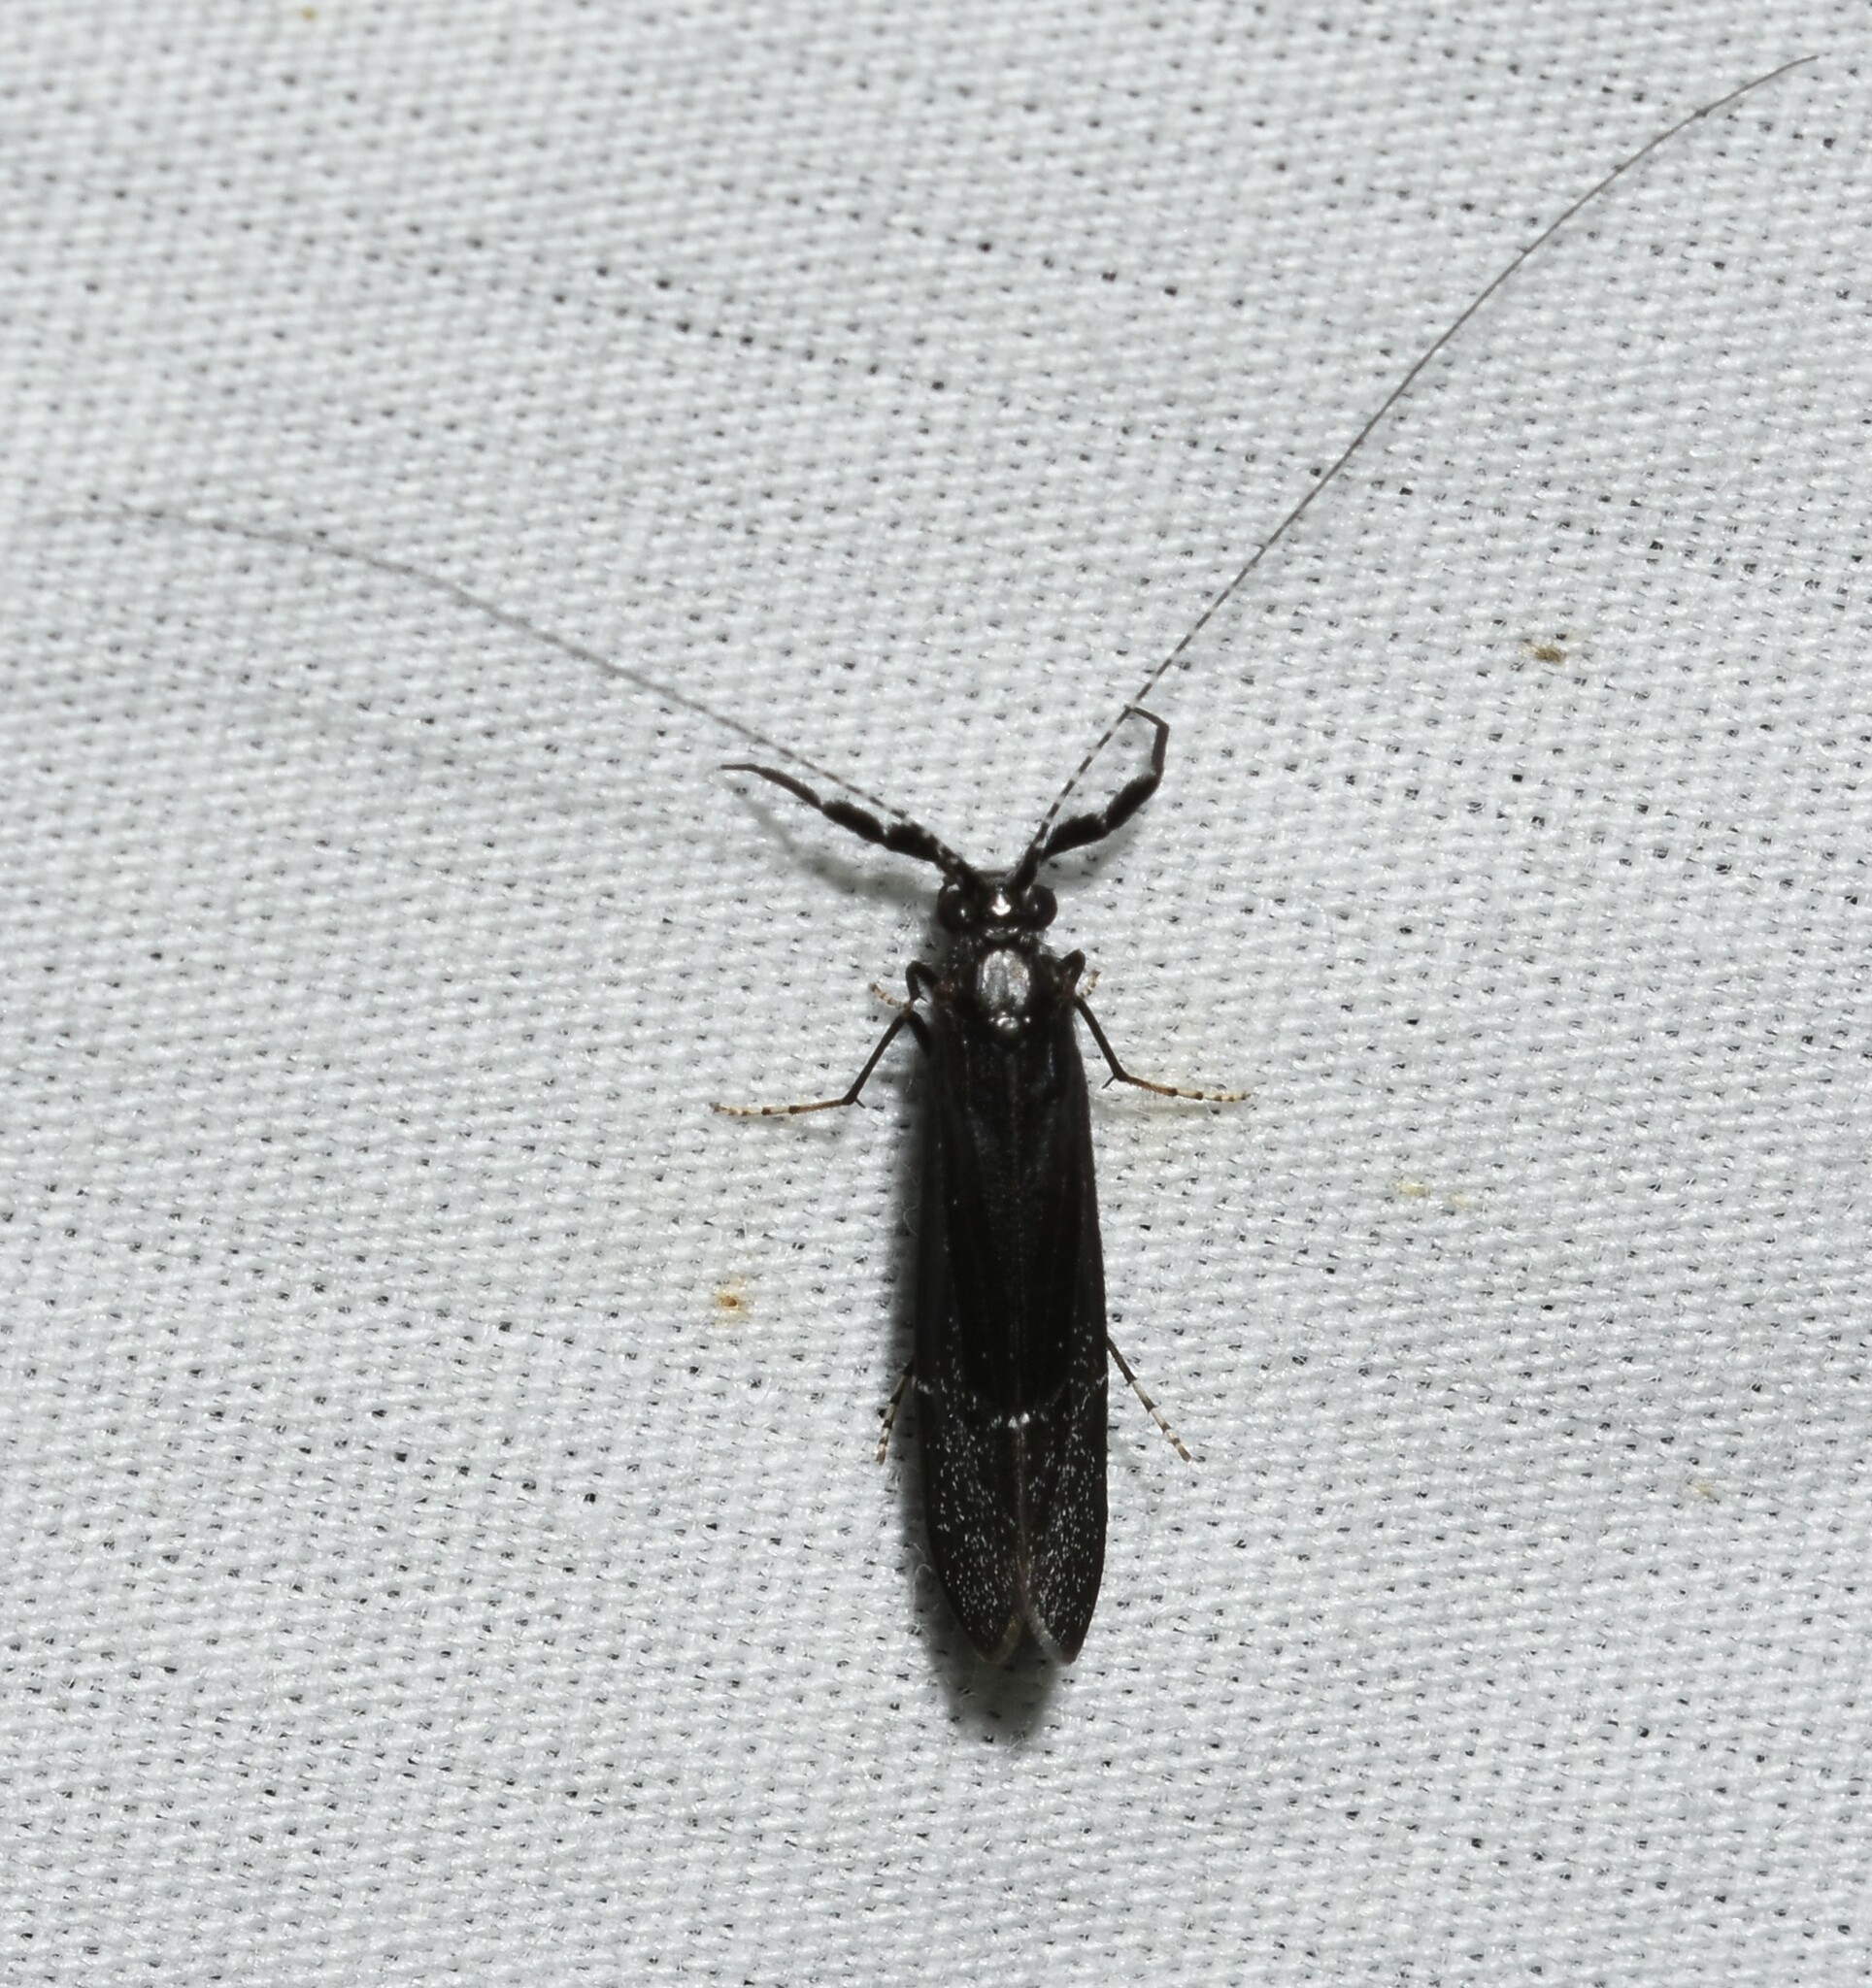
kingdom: Animalia
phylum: Arthropoda
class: Insecta
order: Trichoptera
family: Leptoceridae
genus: Ceraclea
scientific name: Ceraclea punctata
